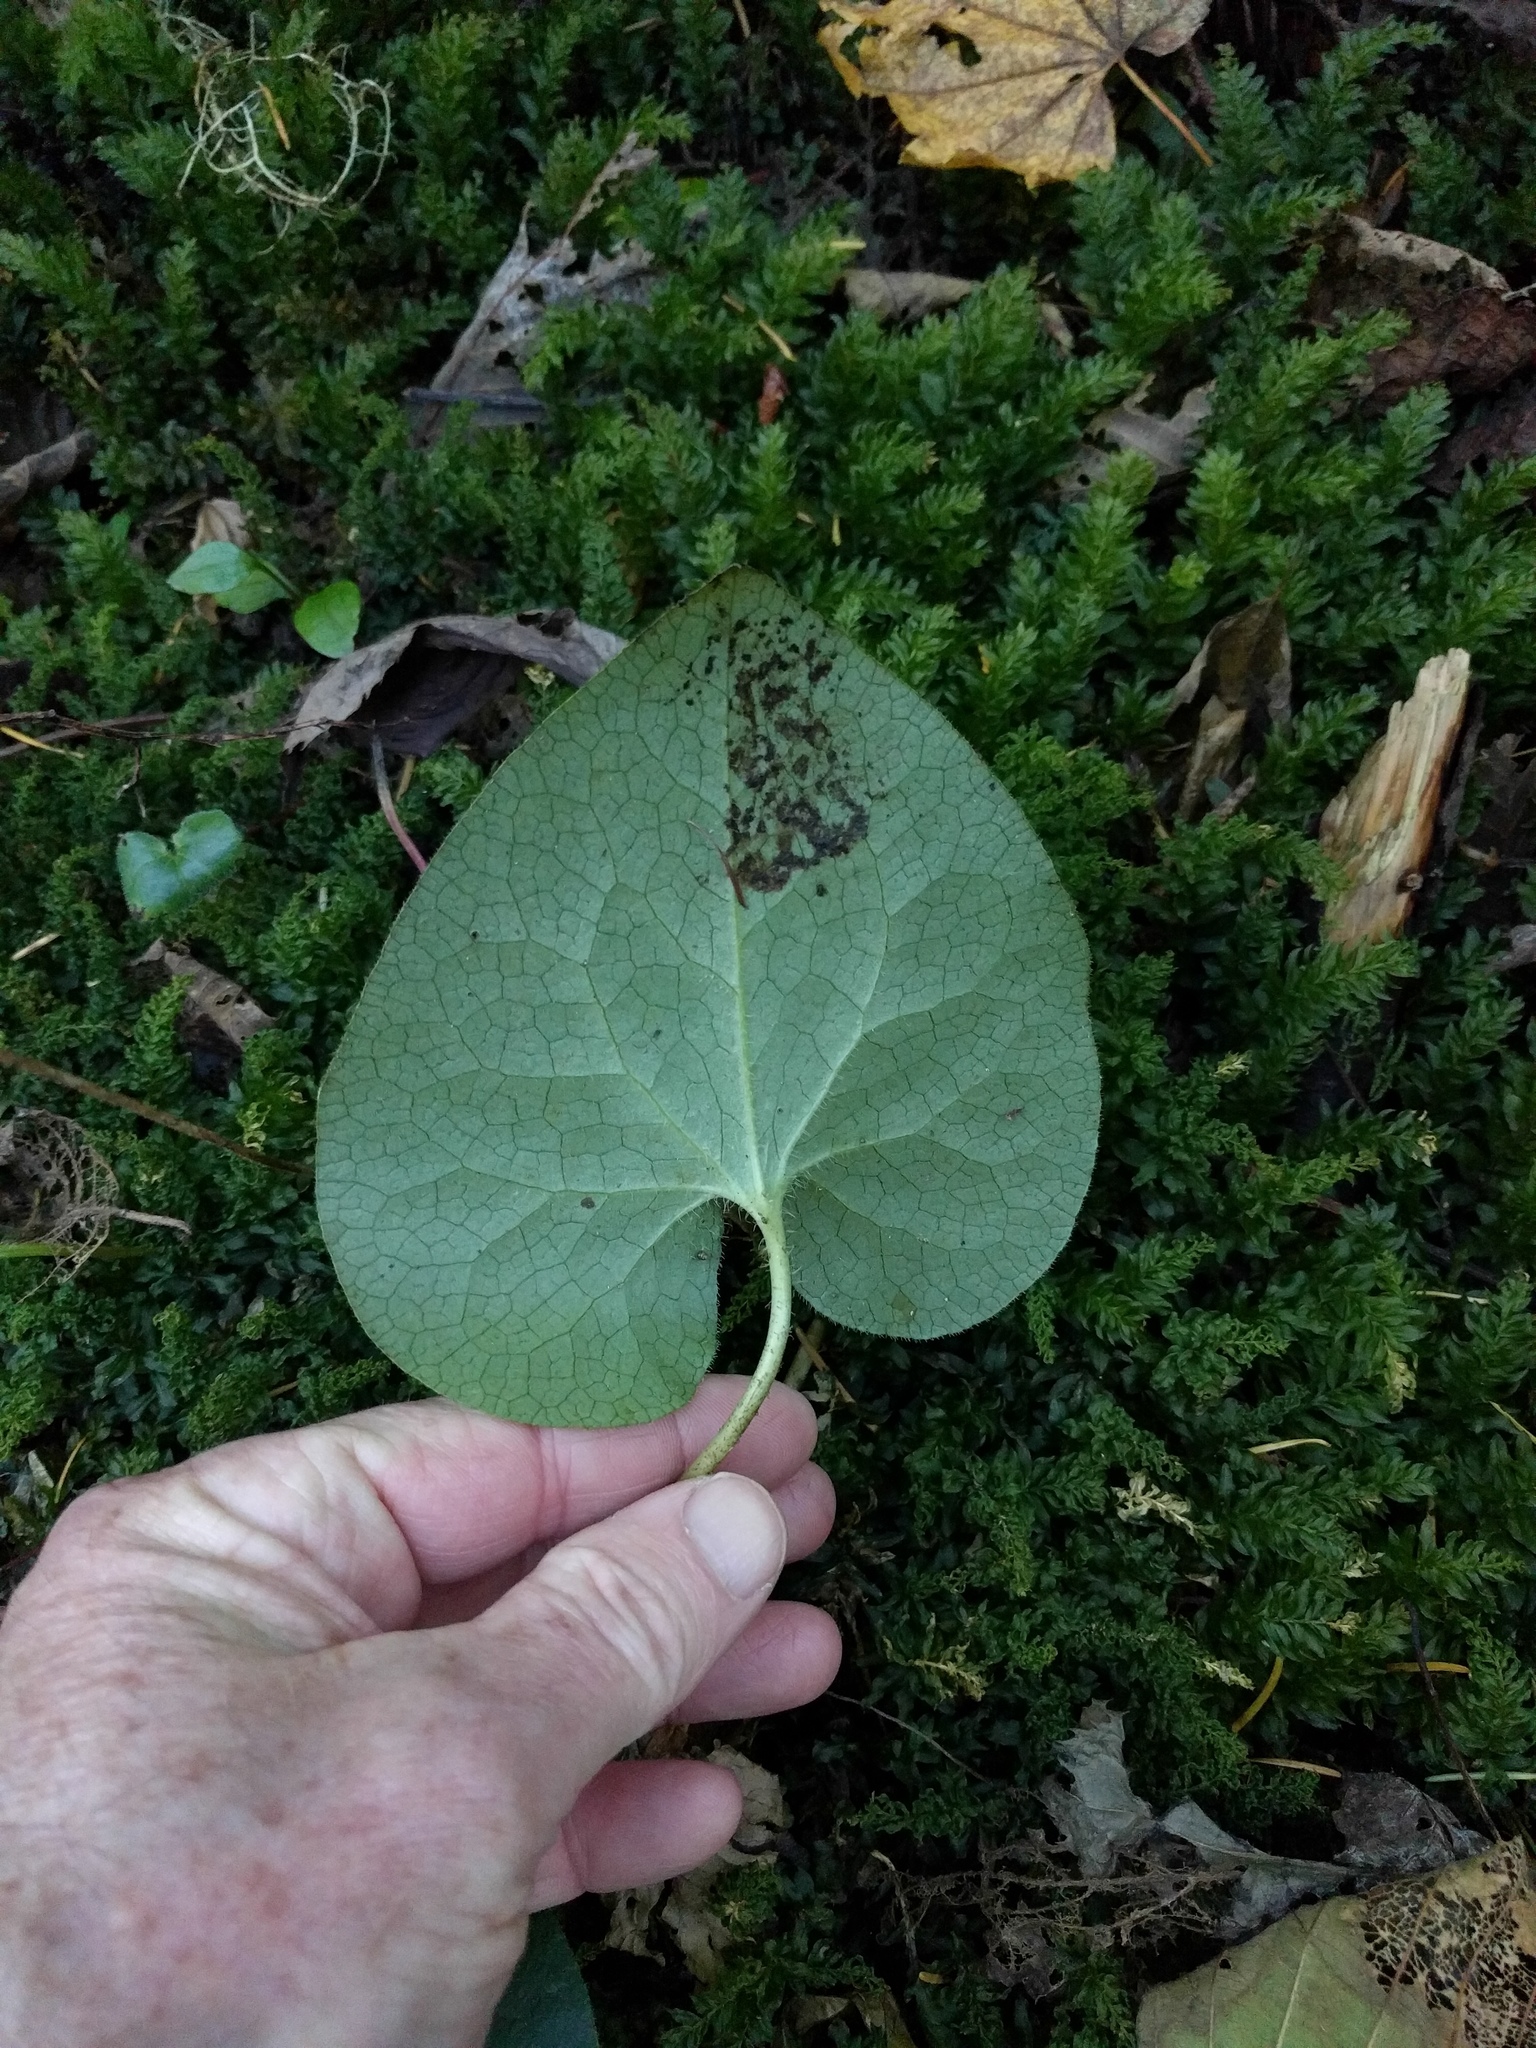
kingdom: Plantae
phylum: Tracheophyta
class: Magnoliopsida
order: Piperales
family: Aristolochiaceae
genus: Asarum
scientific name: Asarum caudatum
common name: Wild ginger
